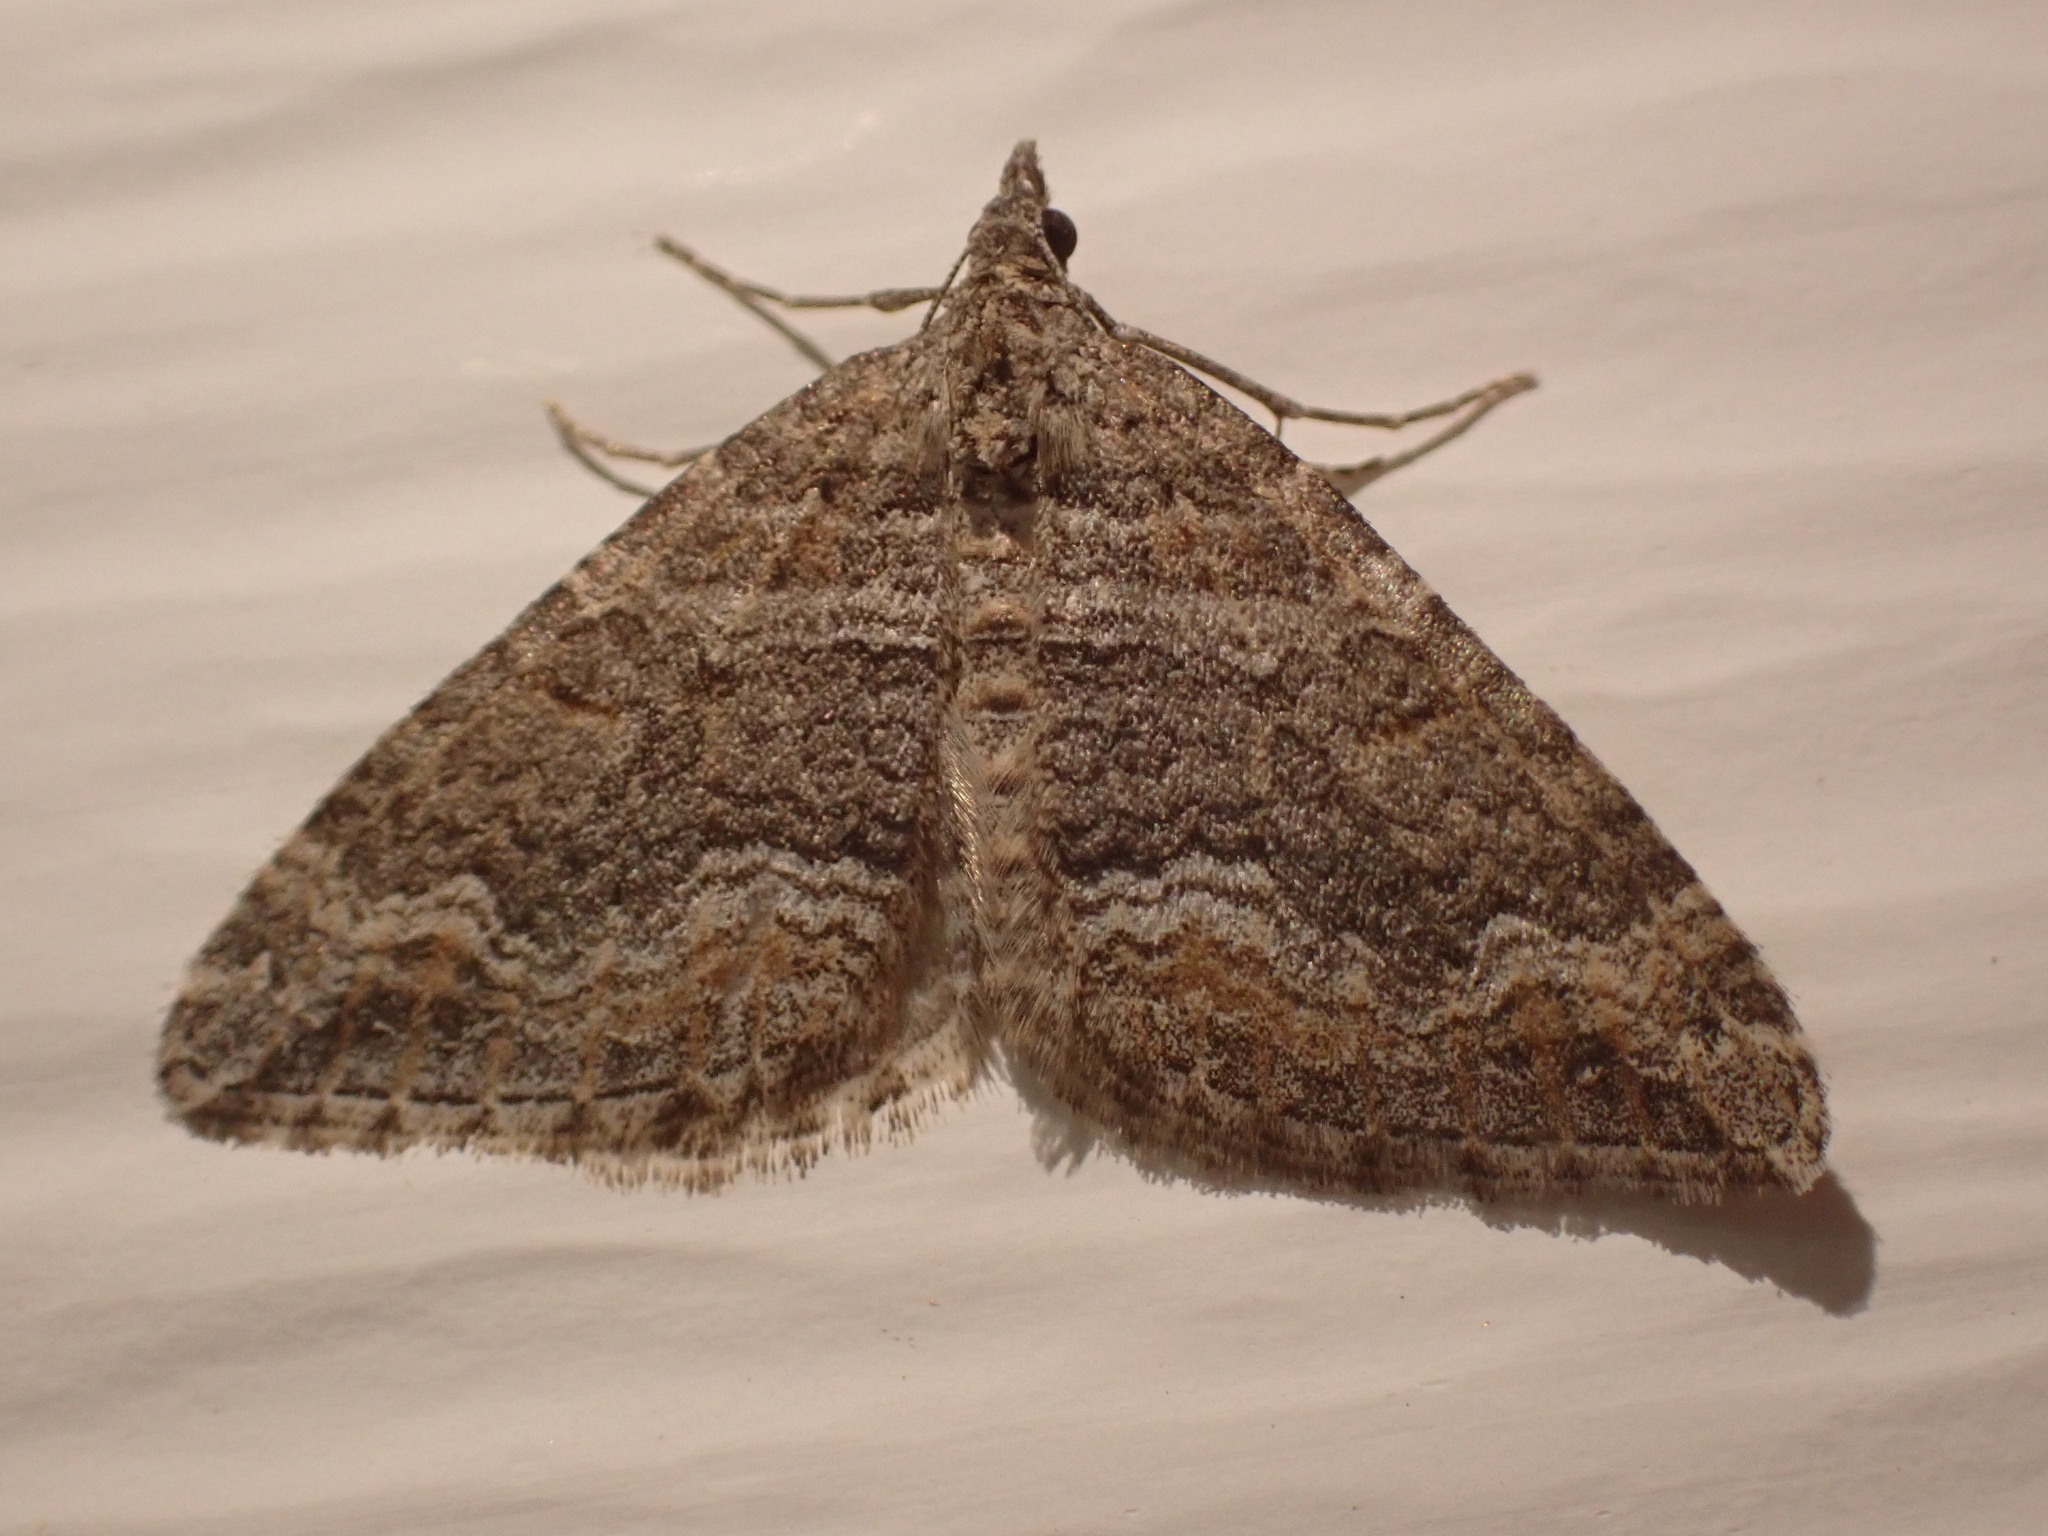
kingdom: Animalia
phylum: Arthropoda
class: Insecta
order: Lepidoptera
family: Geometridae
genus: Perizoma
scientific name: Perizoma custodiata
